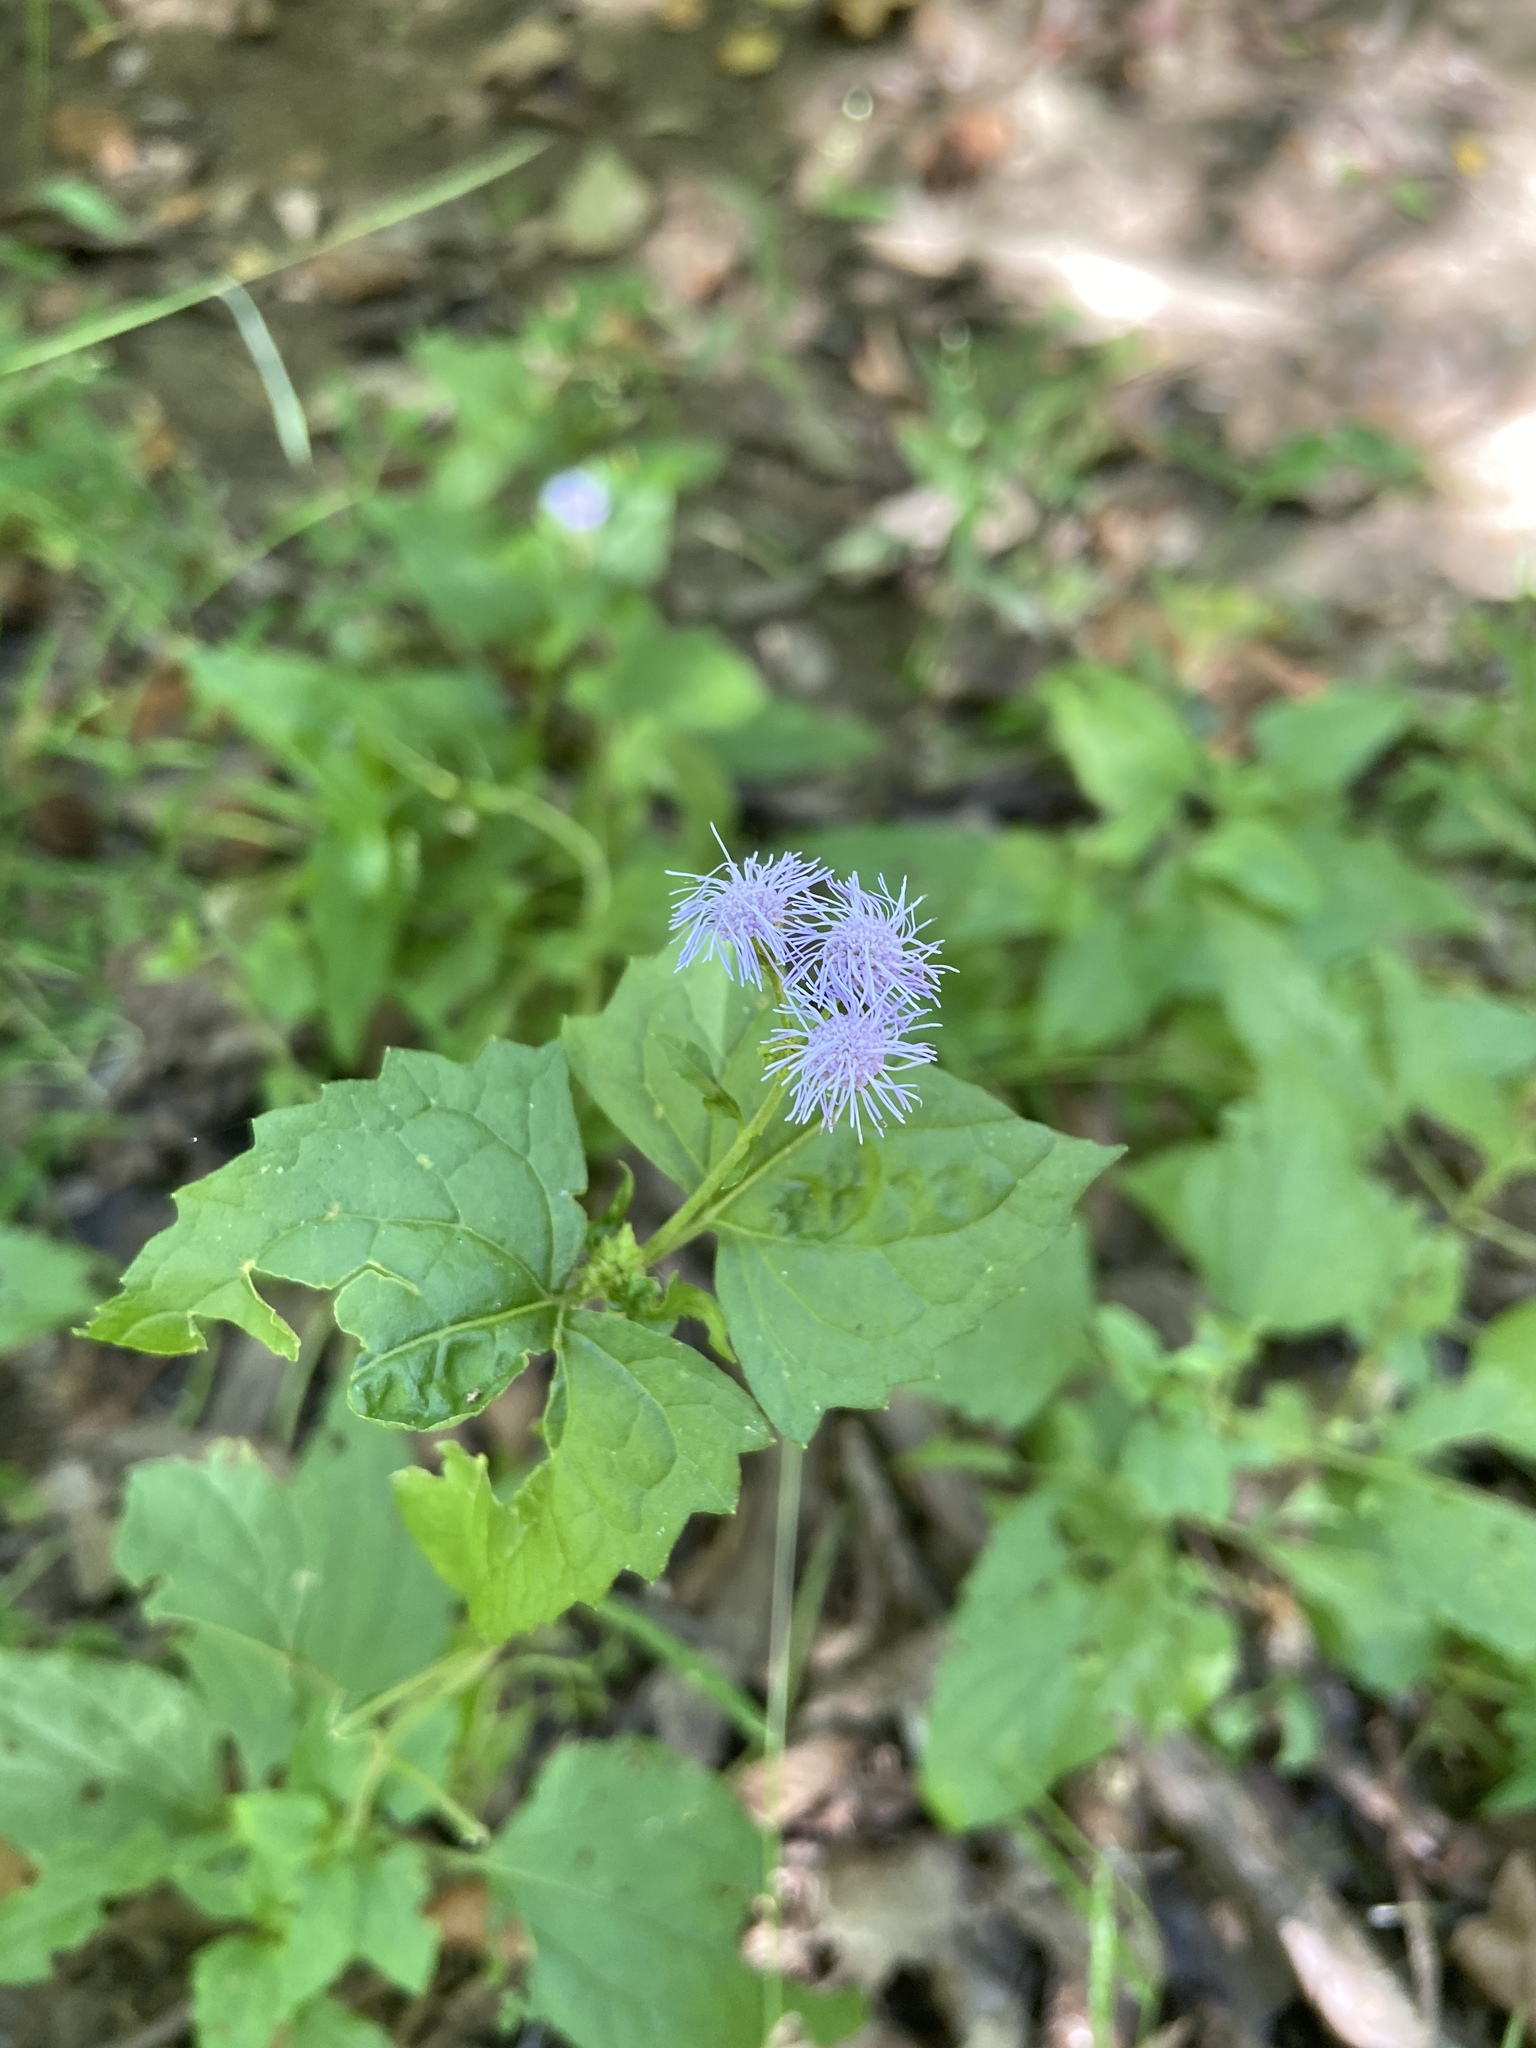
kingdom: Plantae
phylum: Tracheophyta
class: Magnoliopsida
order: Asterales
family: Asteraceae
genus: Conoclinium
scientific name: Conoclinium coelestinum
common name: Blue mistflower
